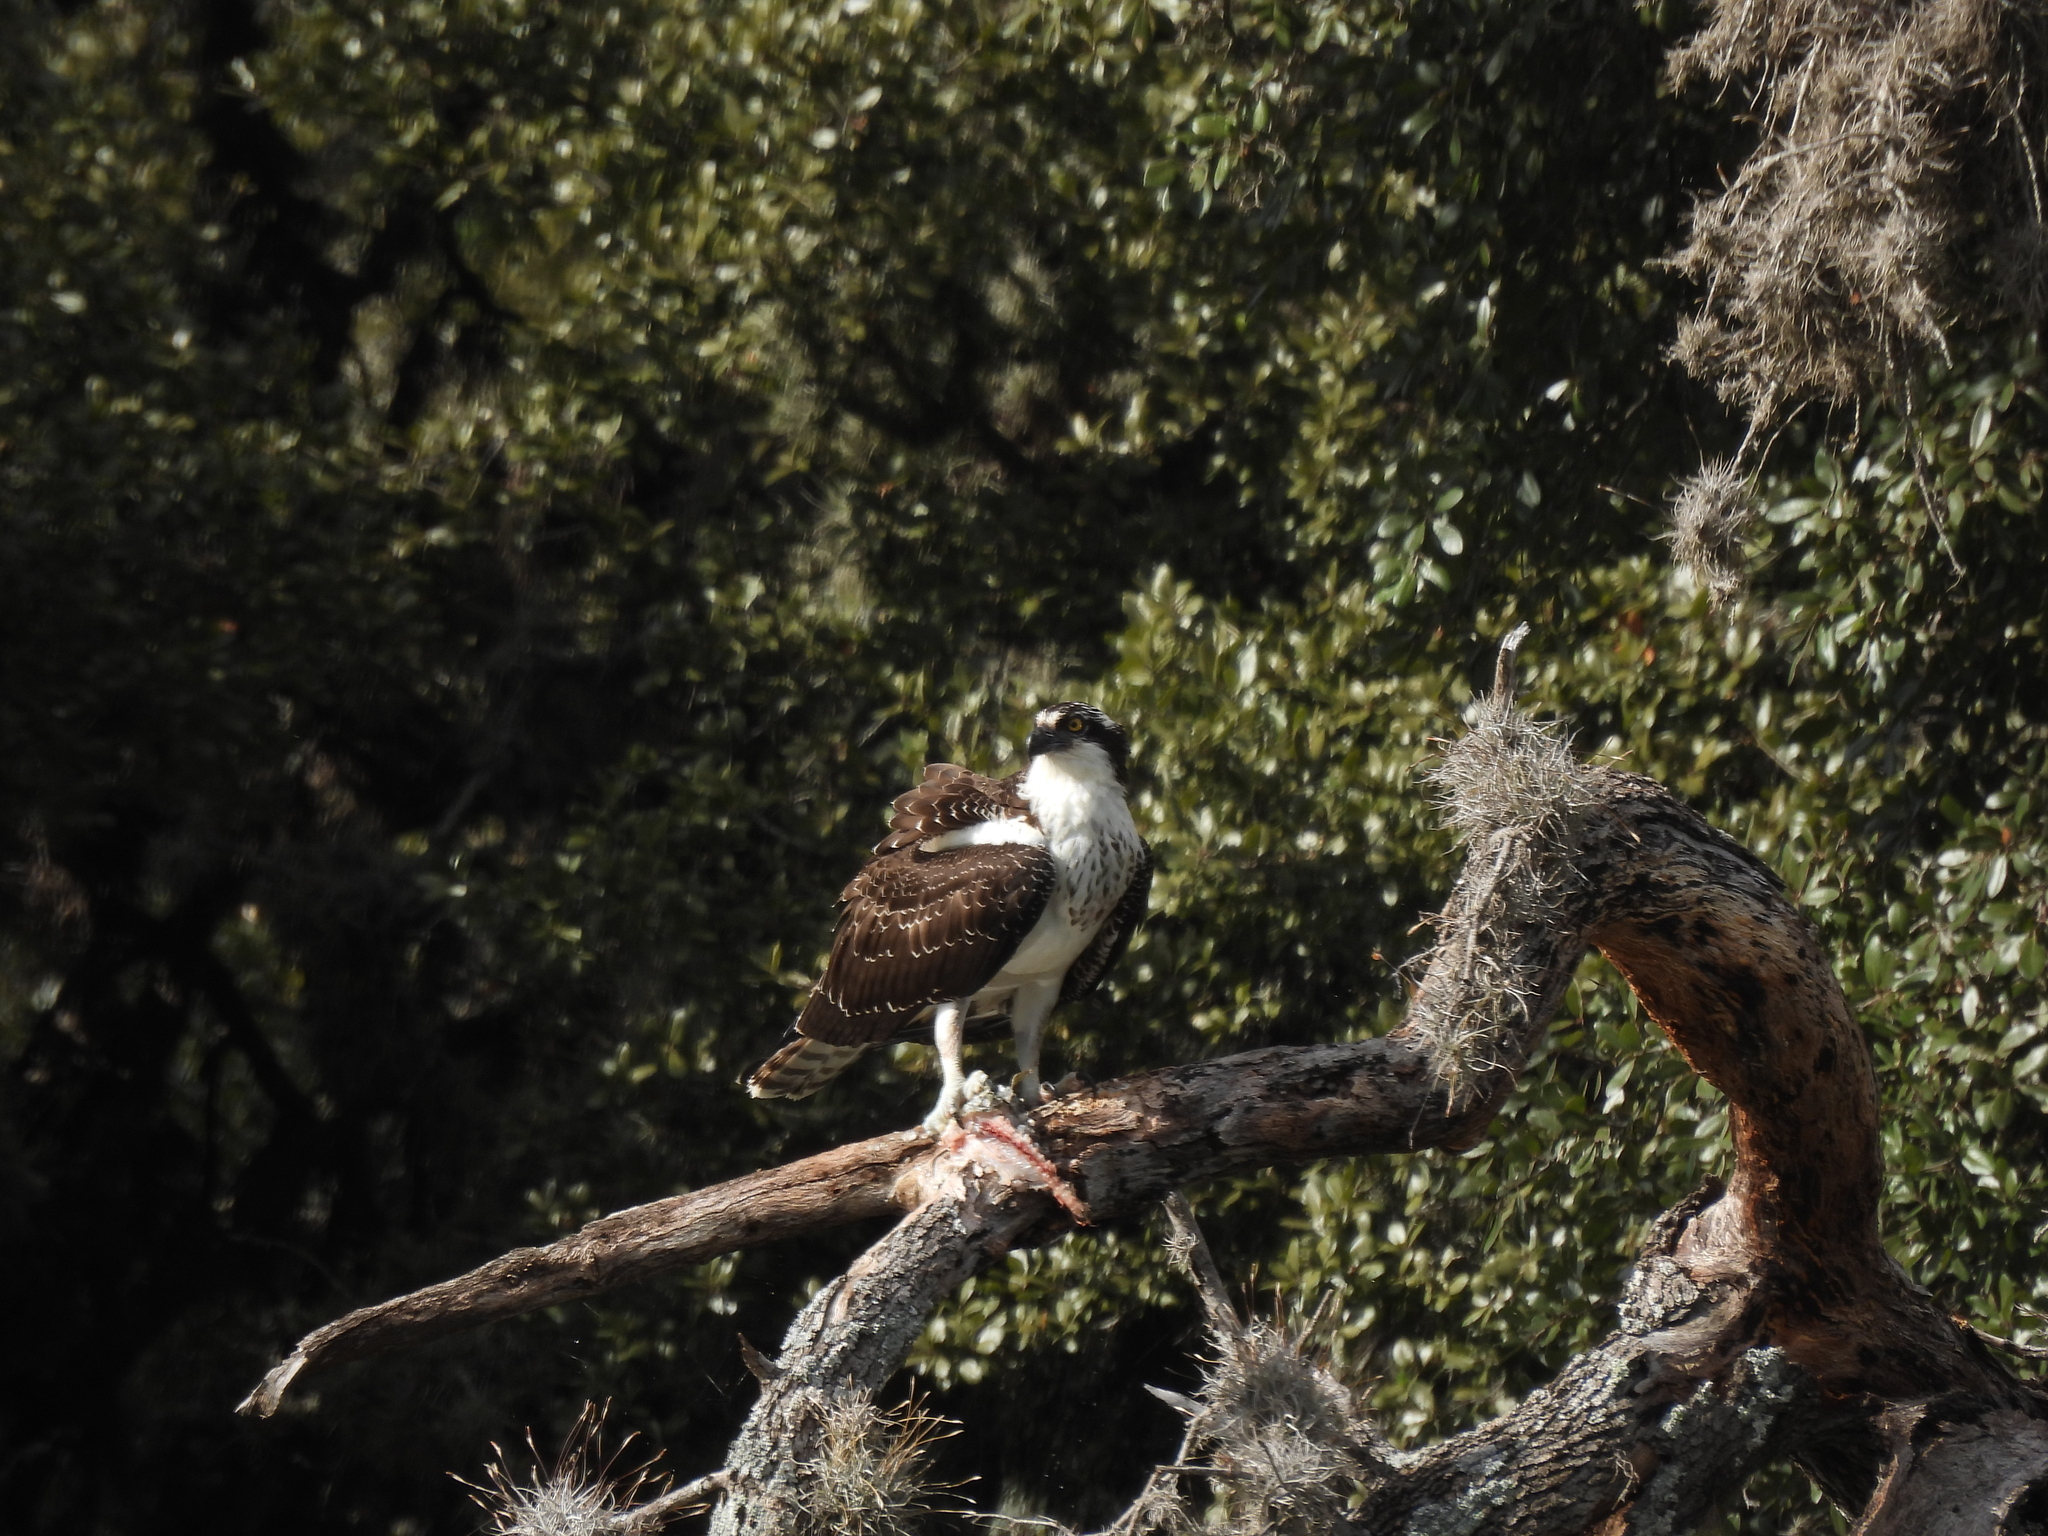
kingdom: Animalia
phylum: Chordata
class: Aves
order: Accipitriformes
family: Pandionidae
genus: Pandion
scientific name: Pandion haliaetus
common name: Osprey
